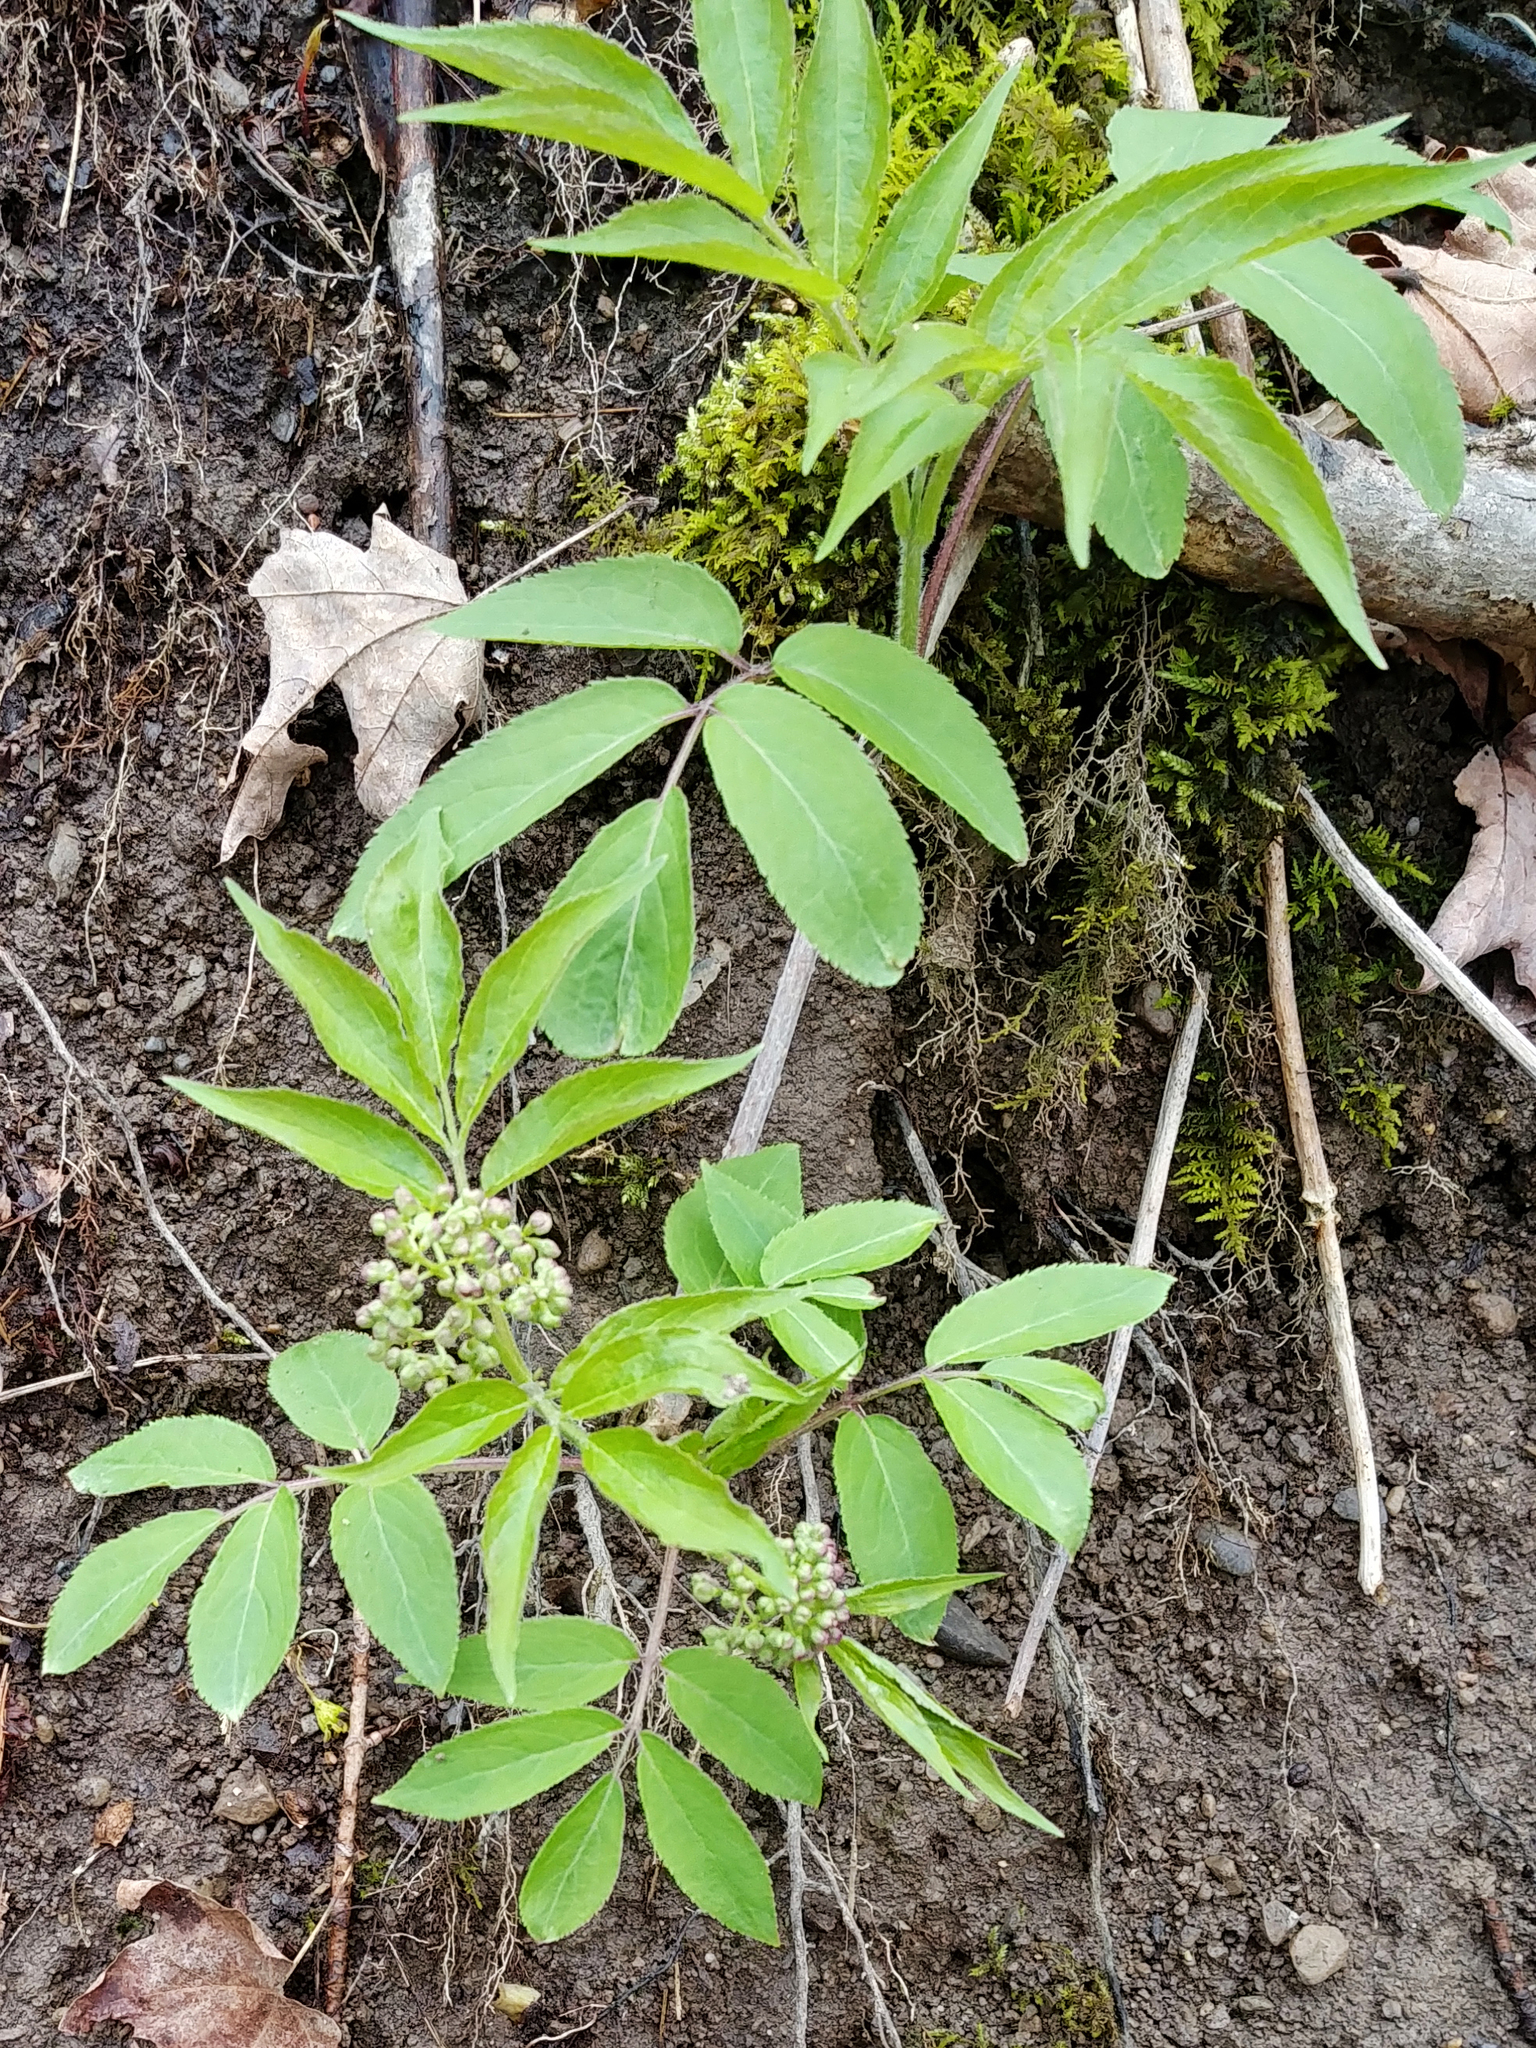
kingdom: Plantae
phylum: Tracheophyta
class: Magnoliopsida
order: Dipsacales
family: Viburnaceae
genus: Sambucus
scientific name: Sambucus racemosa
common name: Red-berried elder
